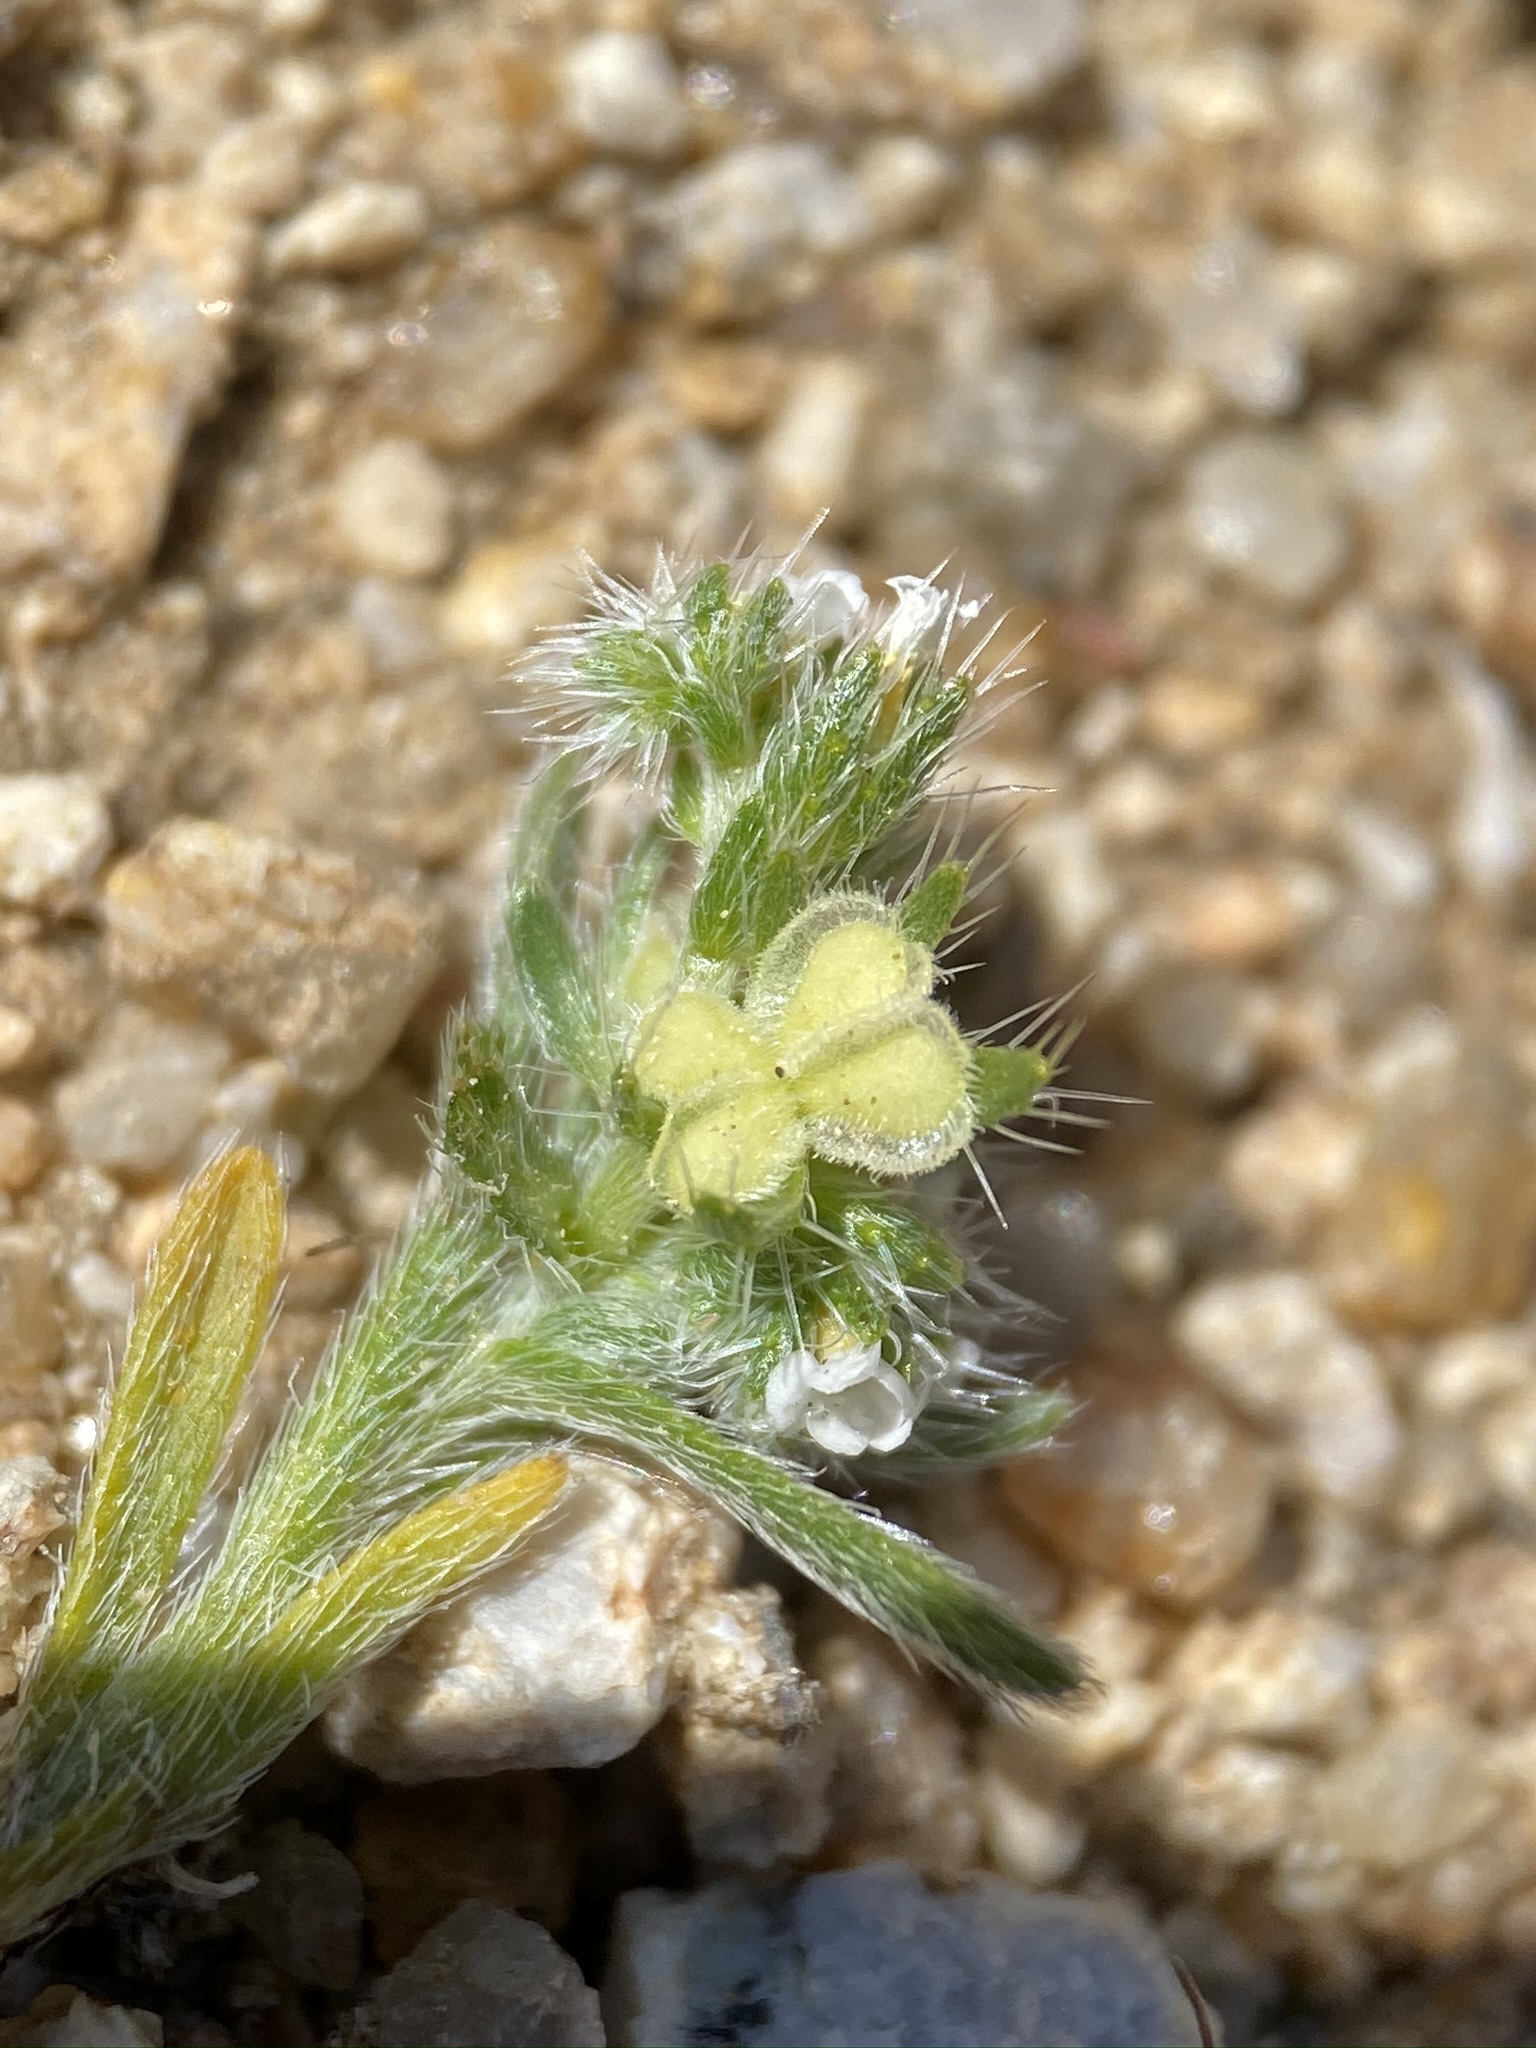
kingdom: Plantae
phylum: Tracheophyta
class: Magnoliopsida
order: Boraginales
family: Boraginaceae
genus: Pectocarya
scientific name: Pectocarya setosa
